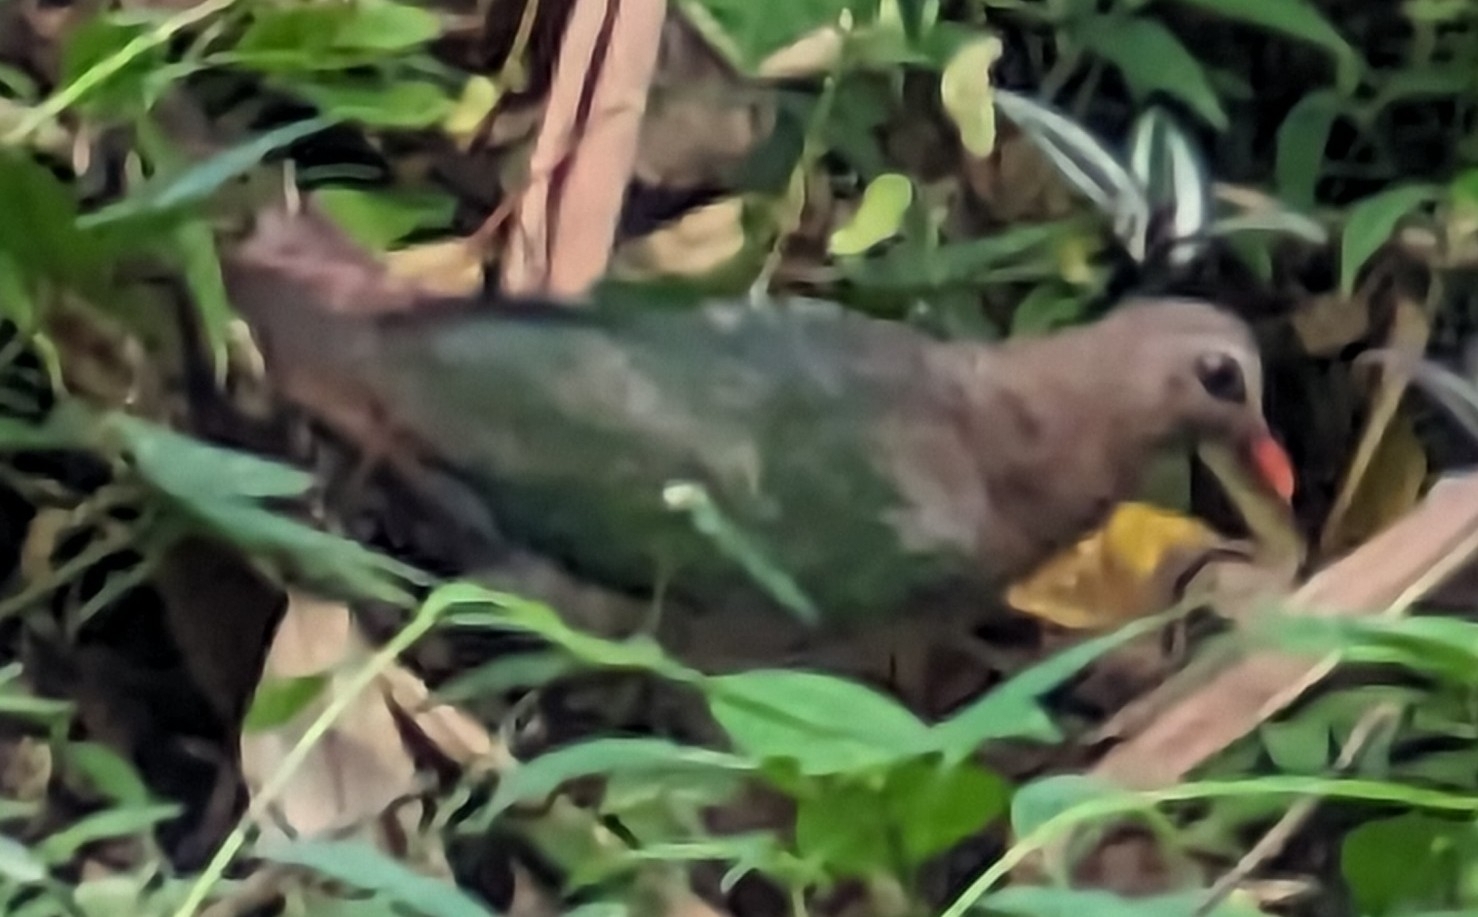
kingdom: Animalia
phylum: Chordata
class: Aves
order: Columbiformes
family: Columbidae
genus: Chalcophaps
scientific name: Chalcophaps indica
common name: Common emerald dove
